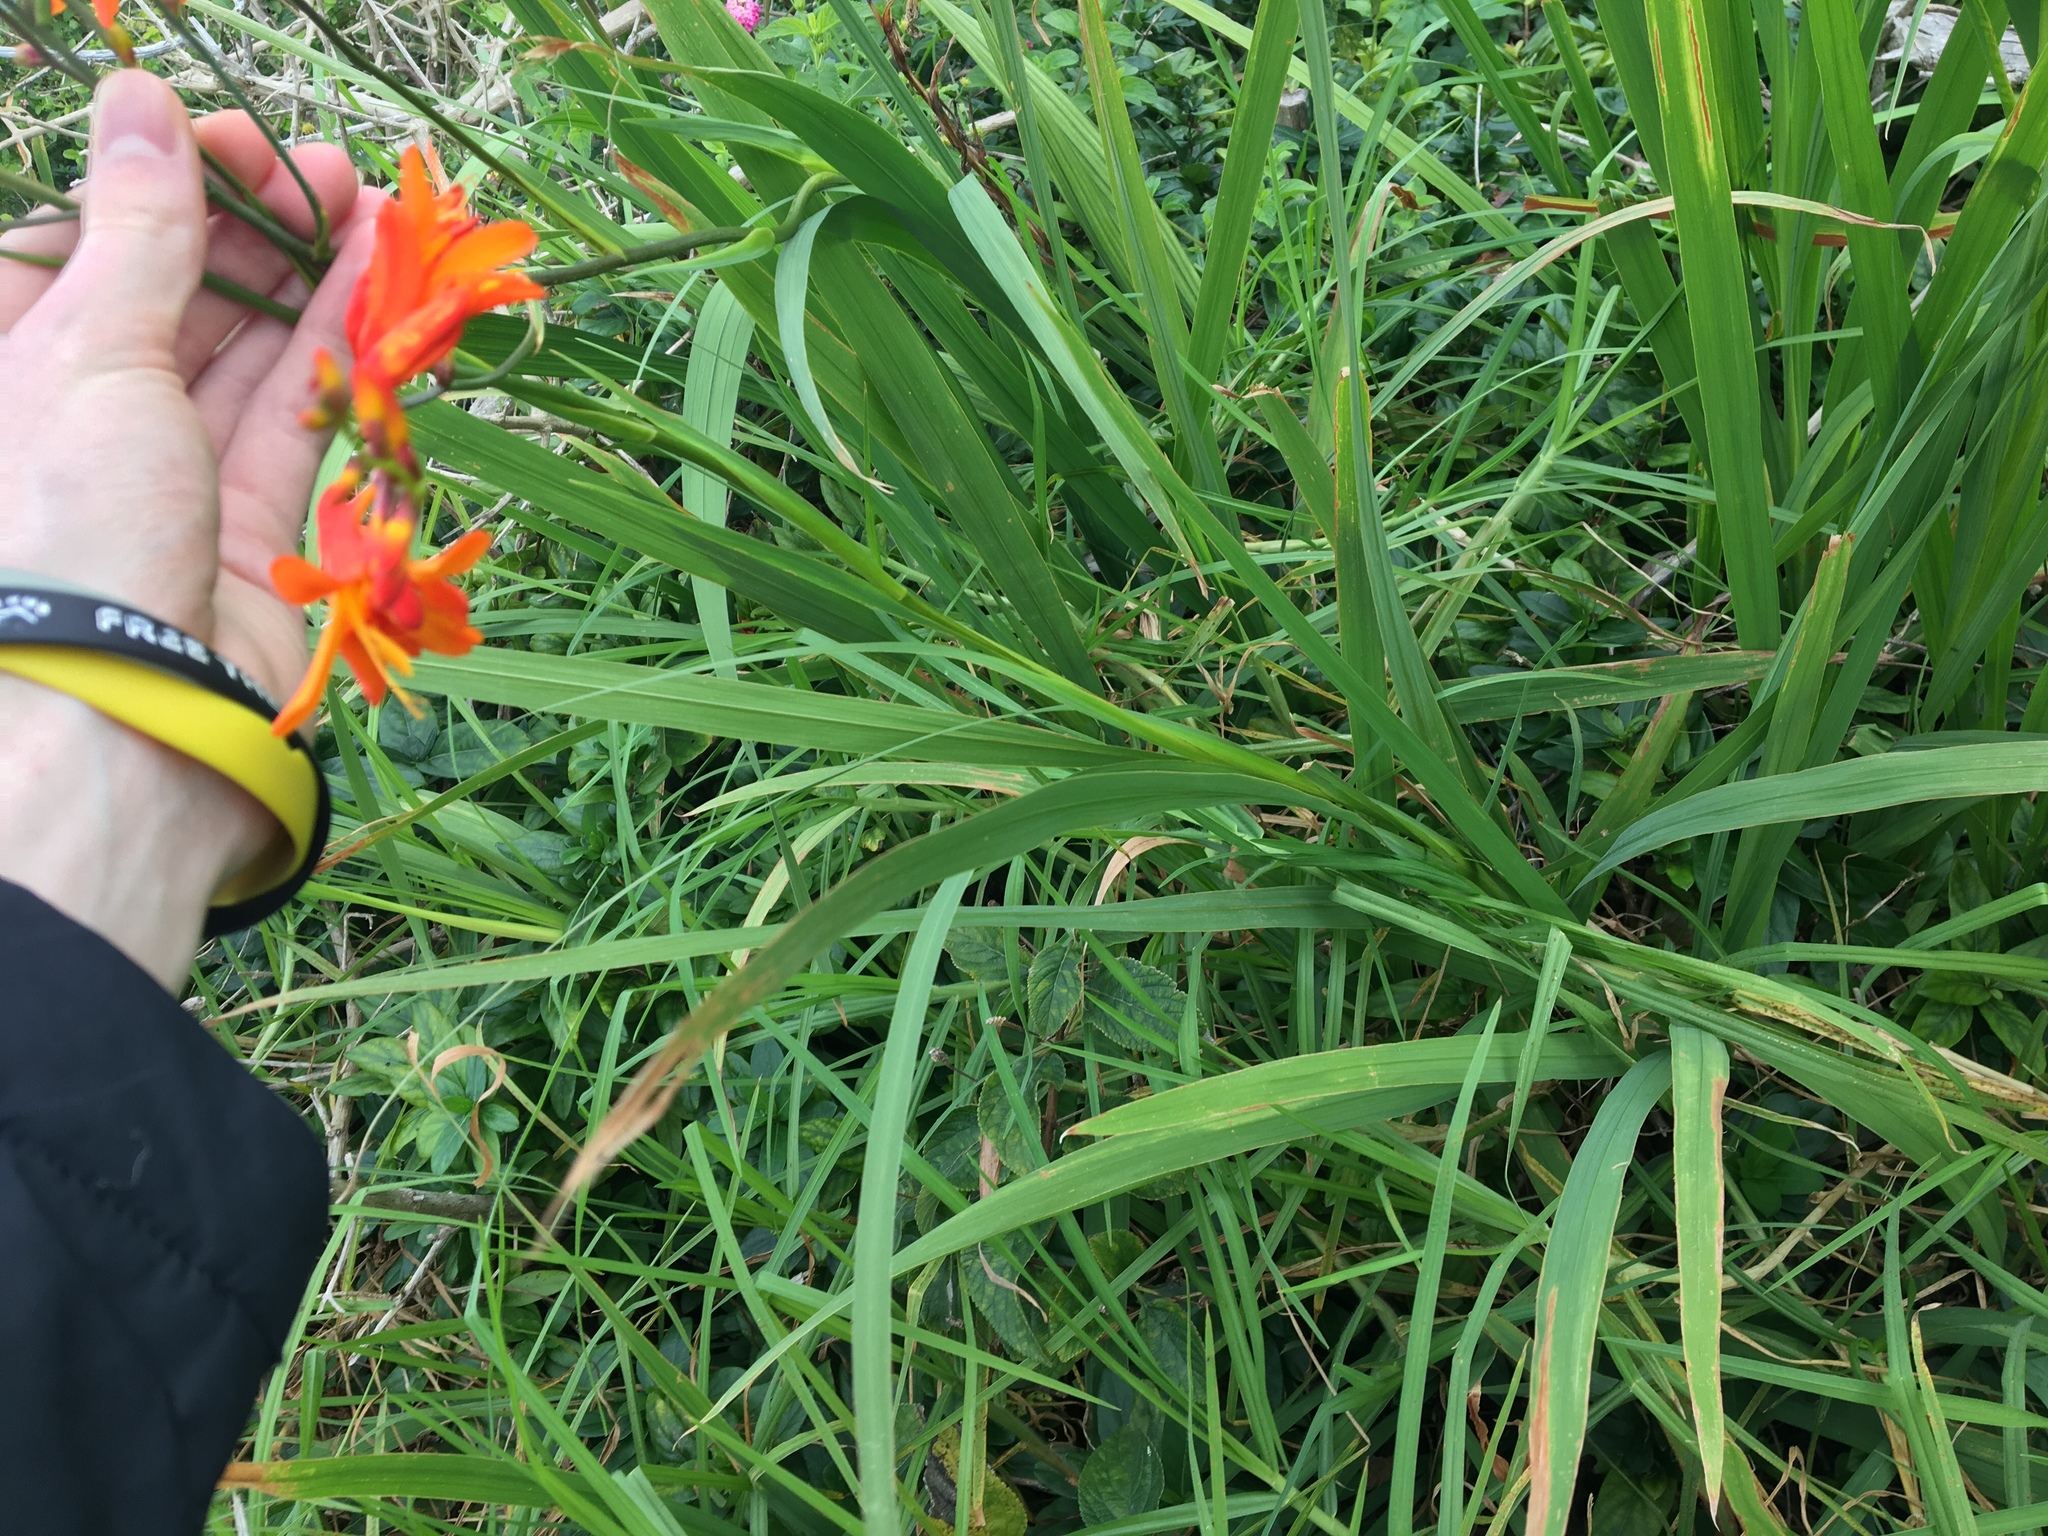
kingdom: Plantae
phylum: Tracheophyta
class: Liliopsida
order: Asparagales
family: Iridaceae
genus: Crocosmia
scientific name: Crocosmia crocosmiiflora
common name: Montbretia
